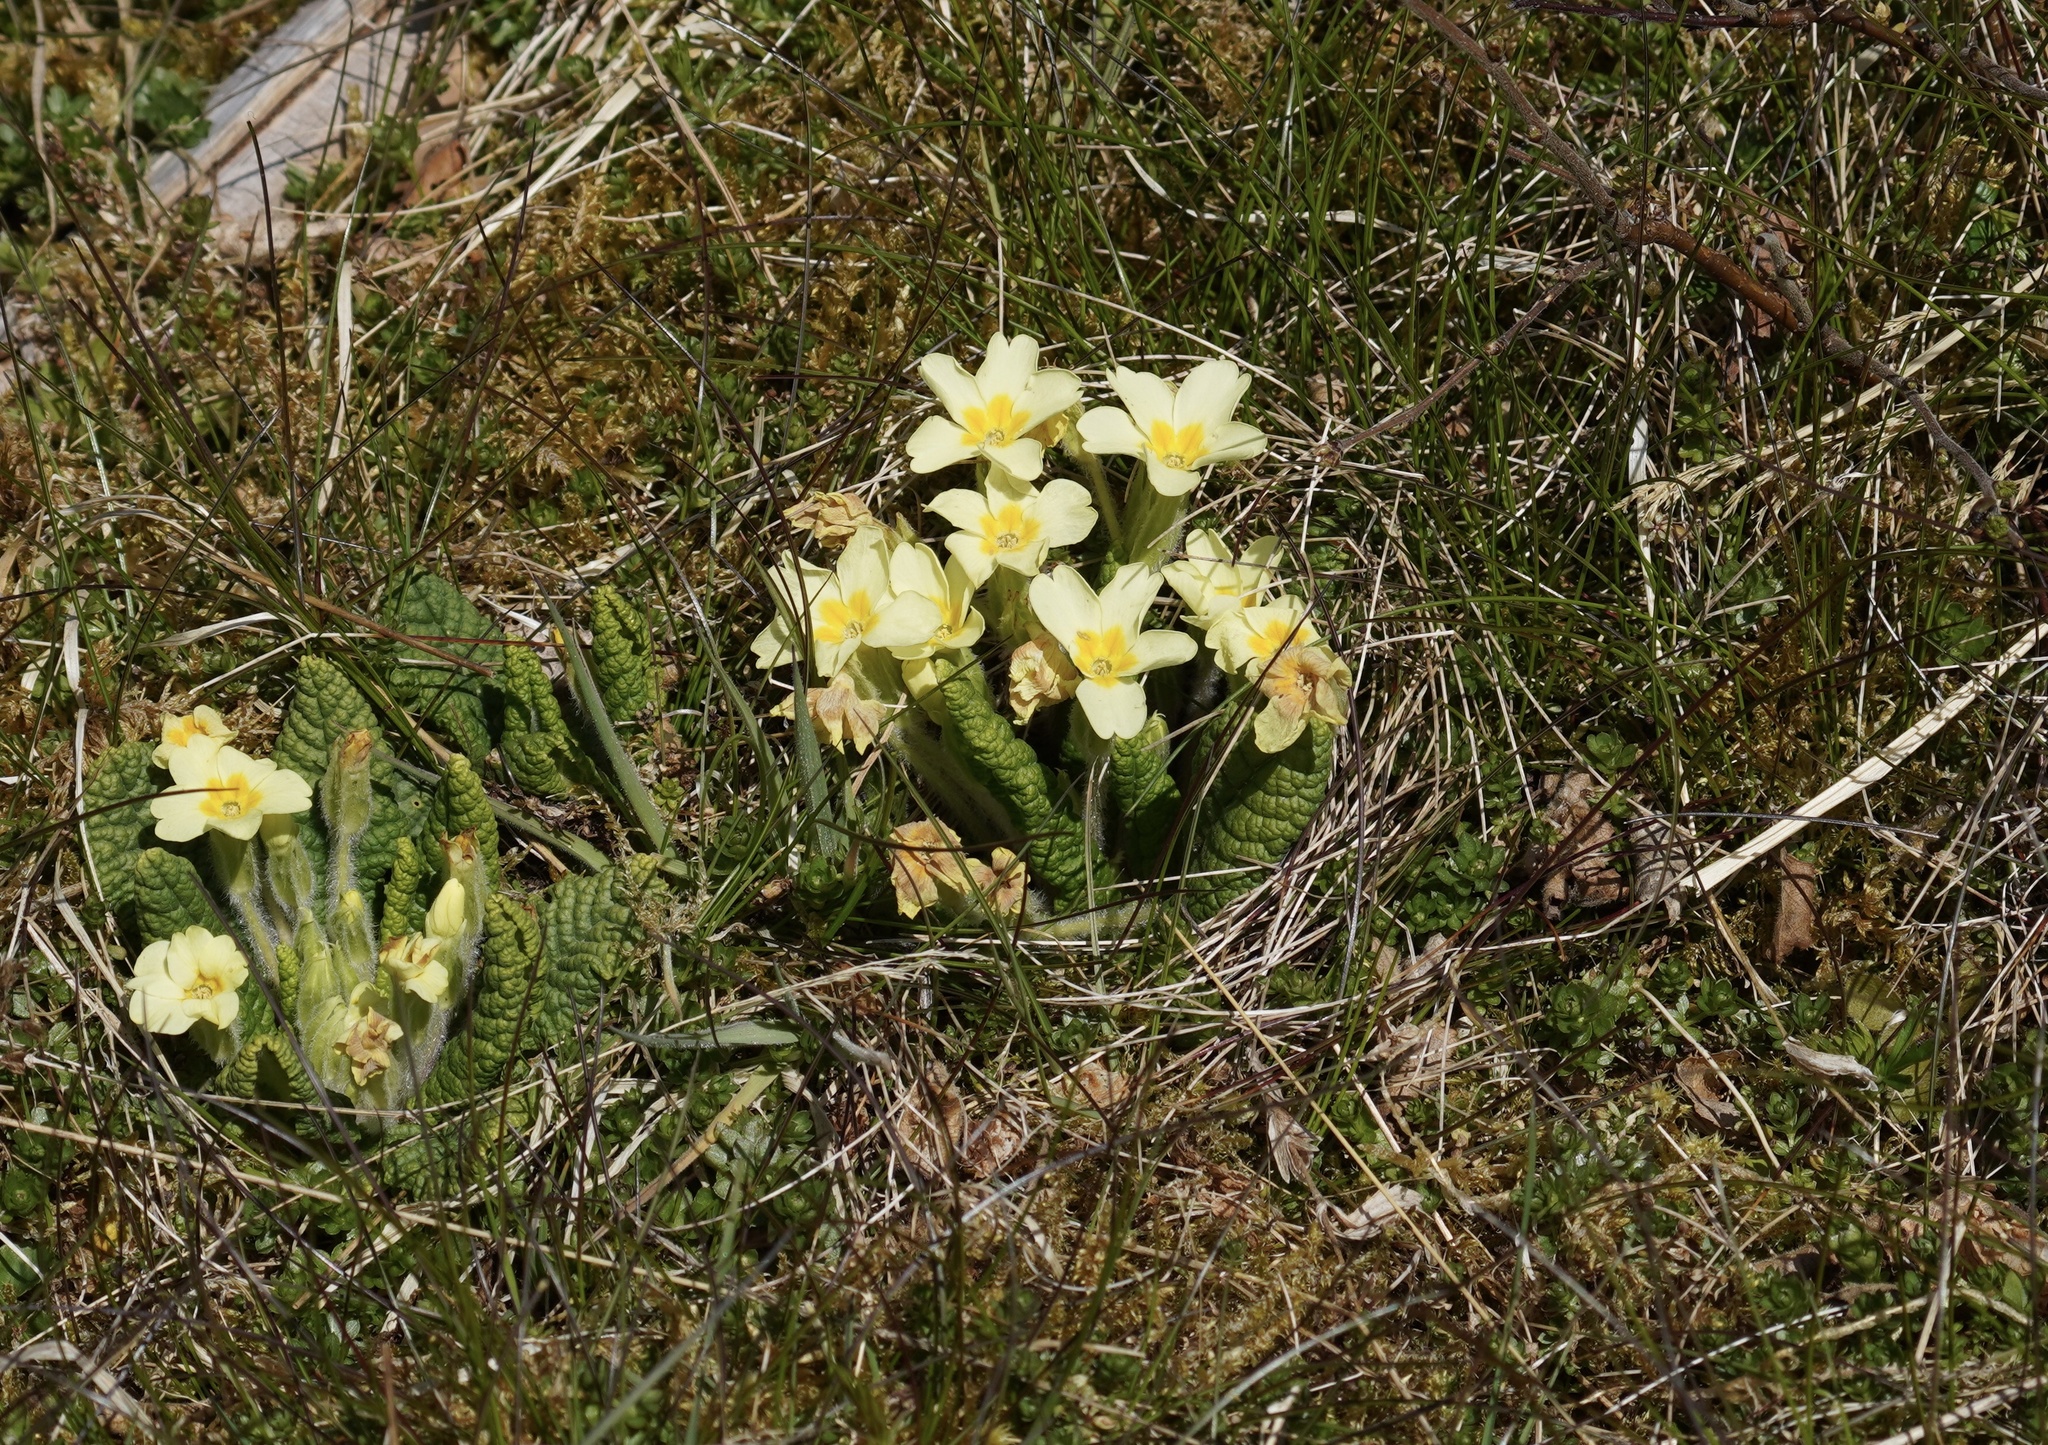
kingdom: Plantae
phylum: Tracheophyta
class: Magnoliopsida
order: Ericales
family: Primulaceae
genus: Primula
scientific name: Primula vulgaris
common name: Primrose
